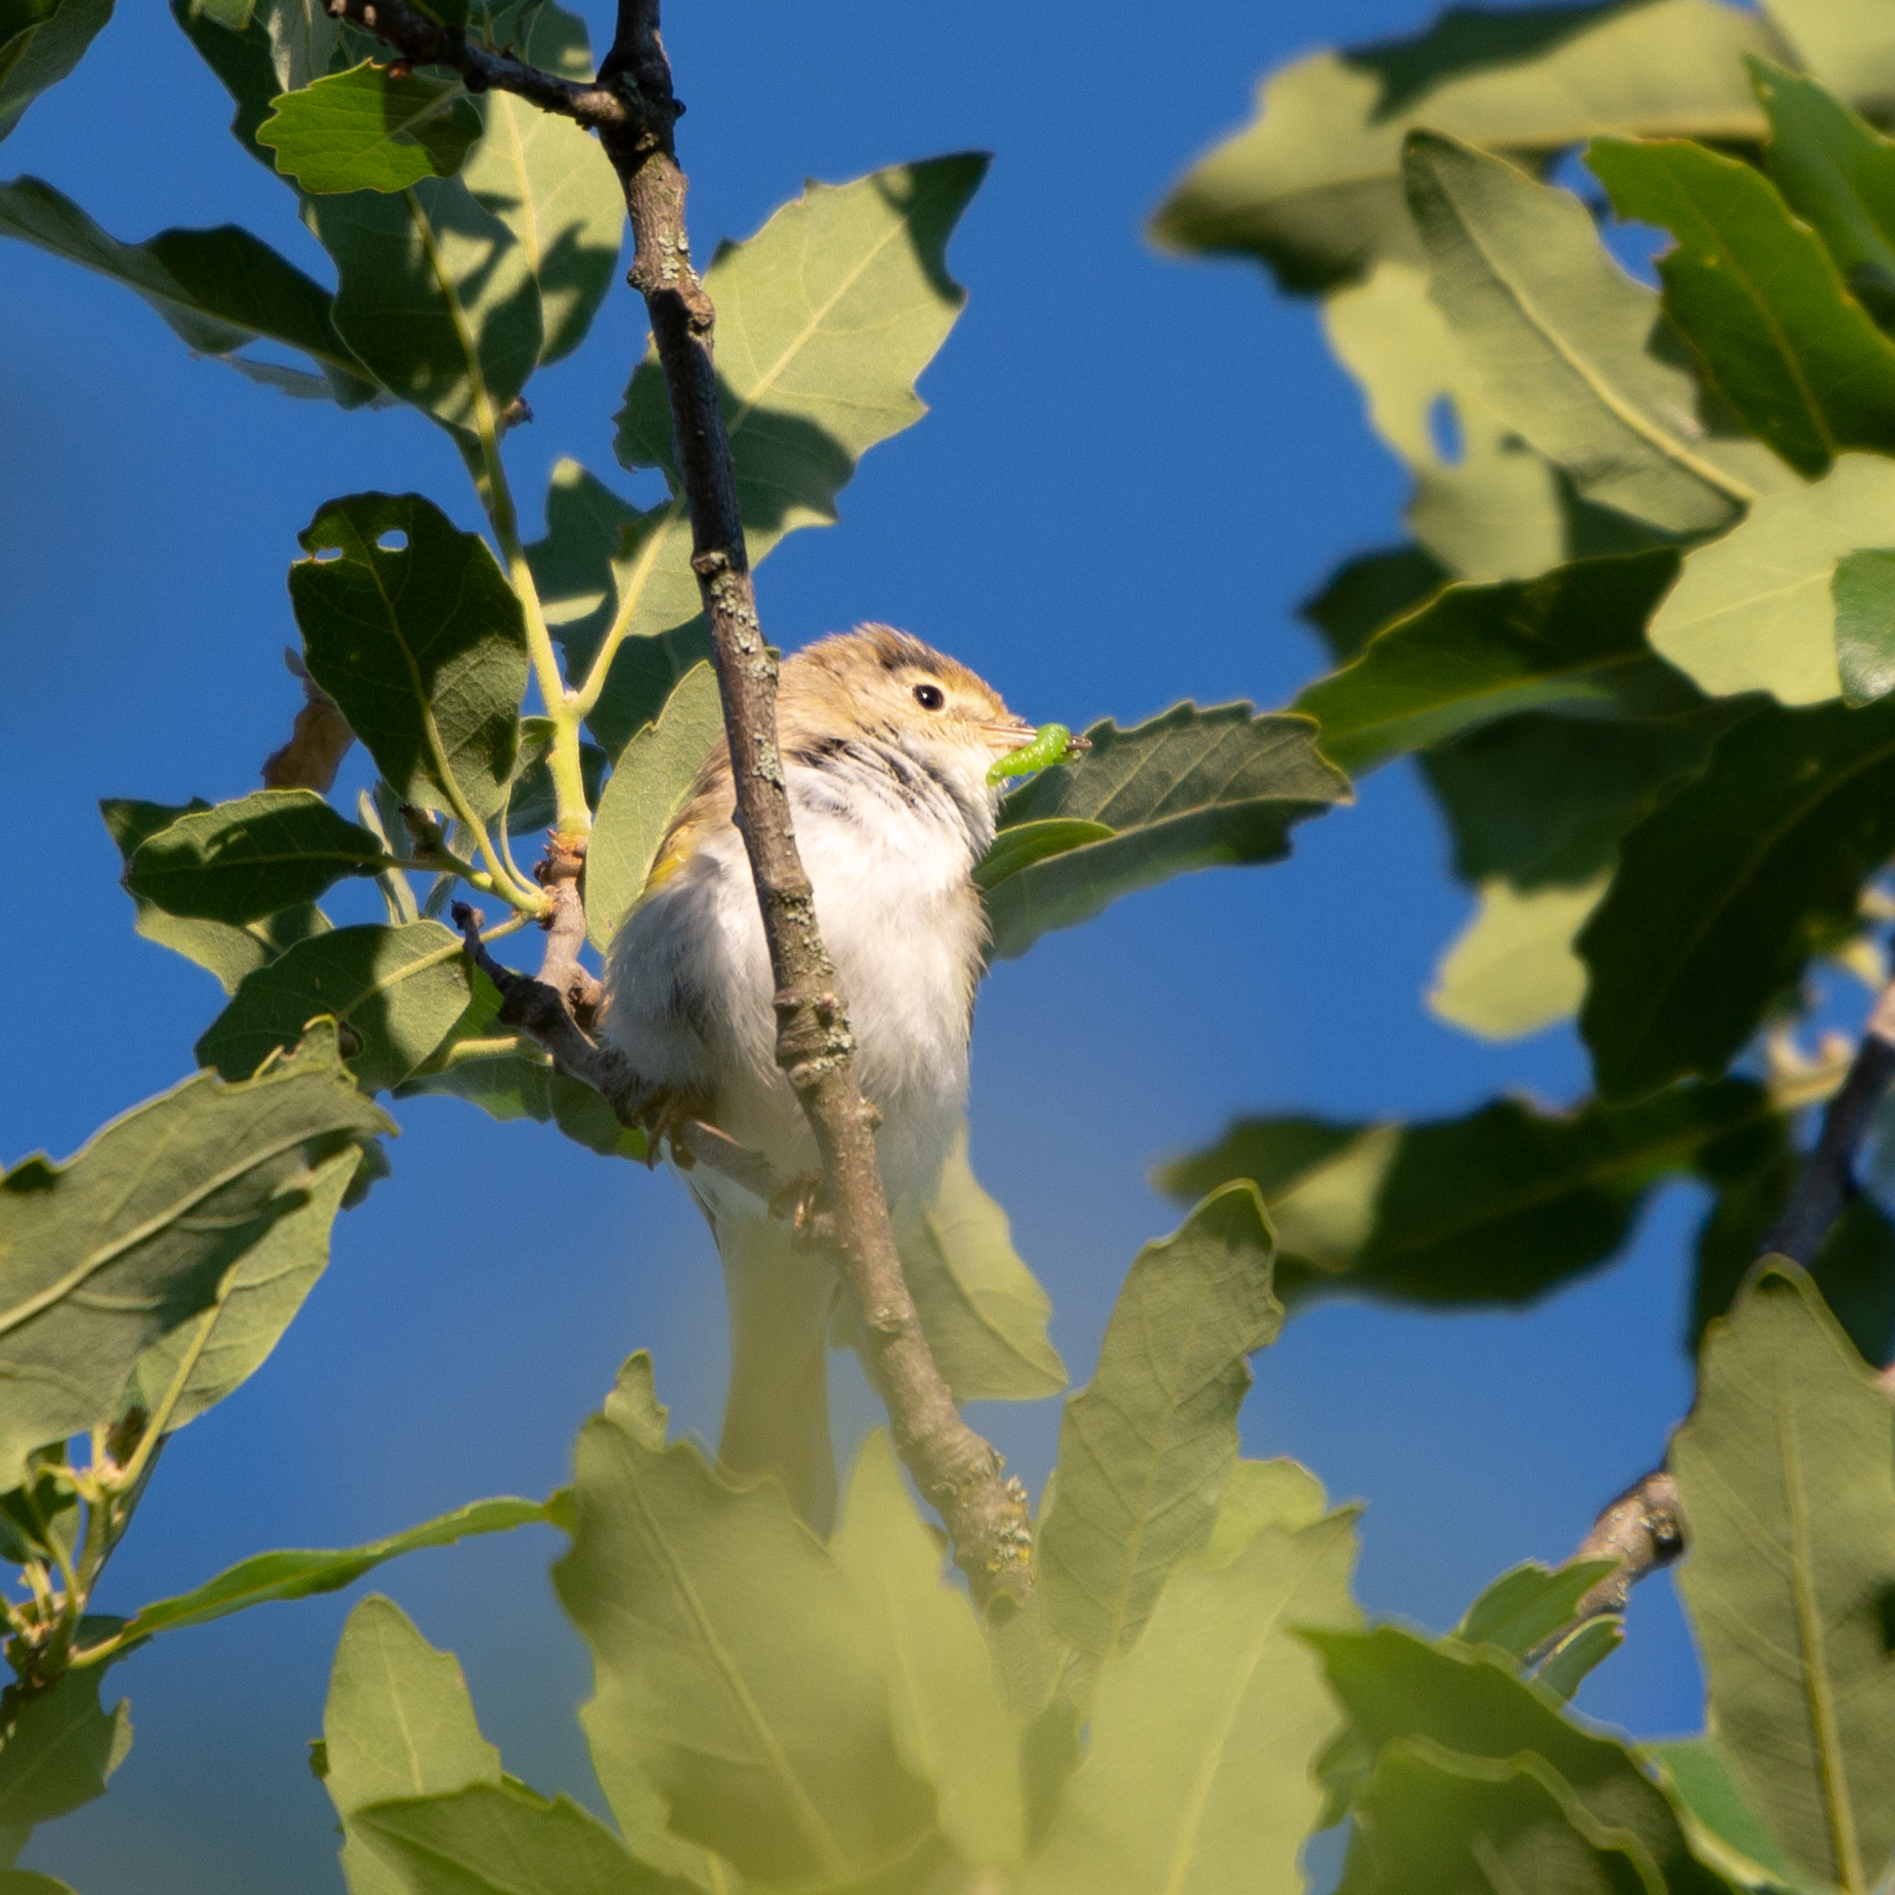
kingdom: Animalia
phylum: Chordata
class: Aves
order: Passeriformes
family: Phylloscopidae
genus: Phylloscopus
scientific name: Phylloscopus bonelli
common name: Western bonelli's warbler
